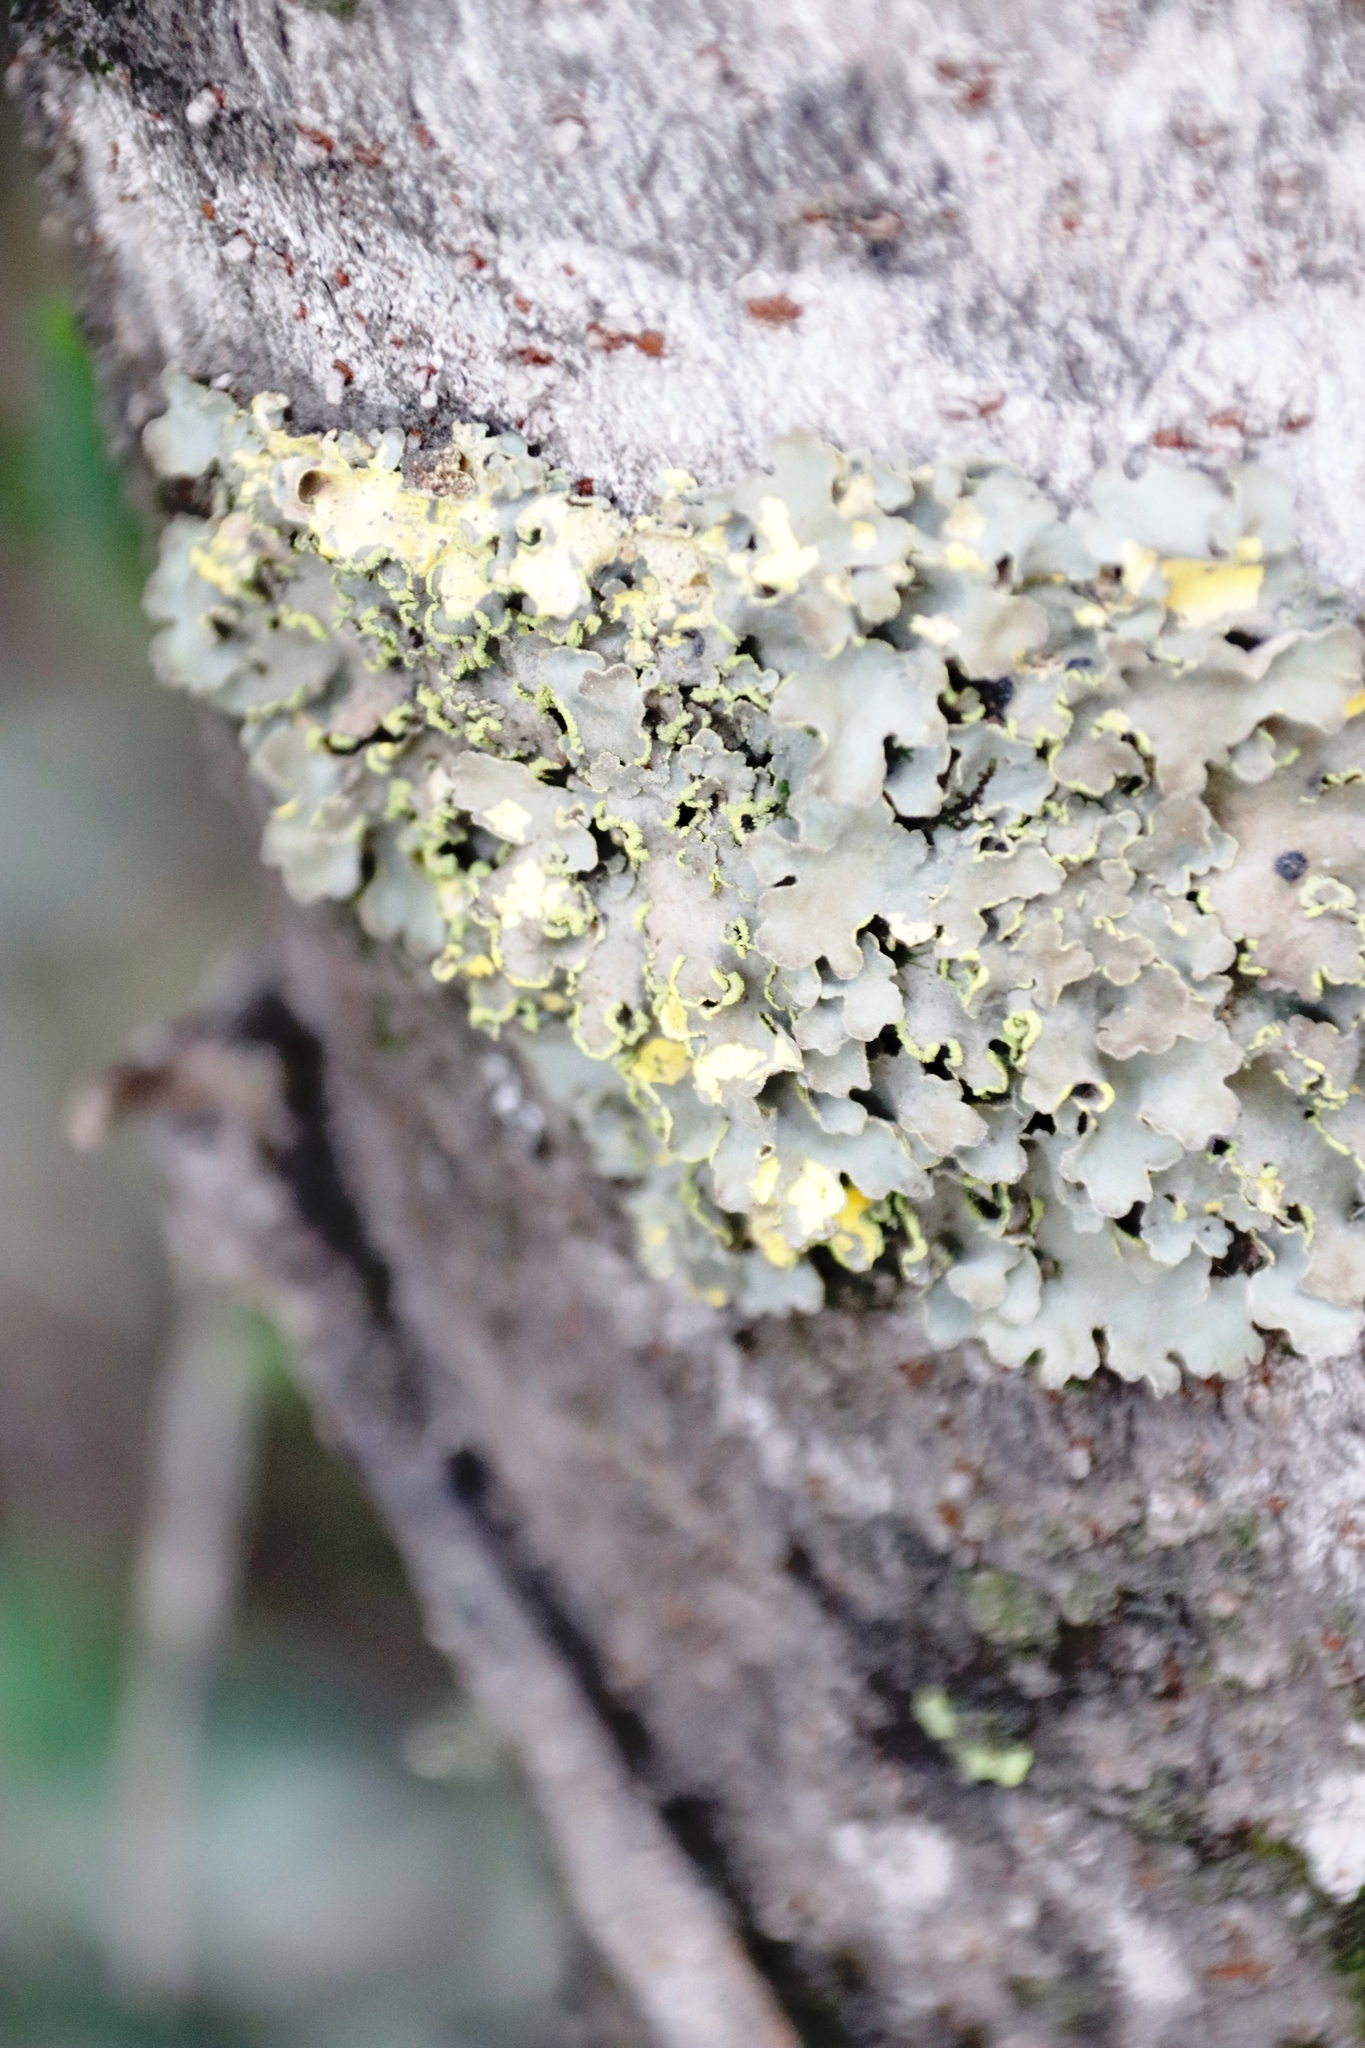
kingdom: Fungi
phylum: Ascomycota
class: Lecanoromycetes
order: Peltigerales
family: Lobariaceae
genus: Pseudocyphellaria
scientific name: Pseudocyphellaria aurata
